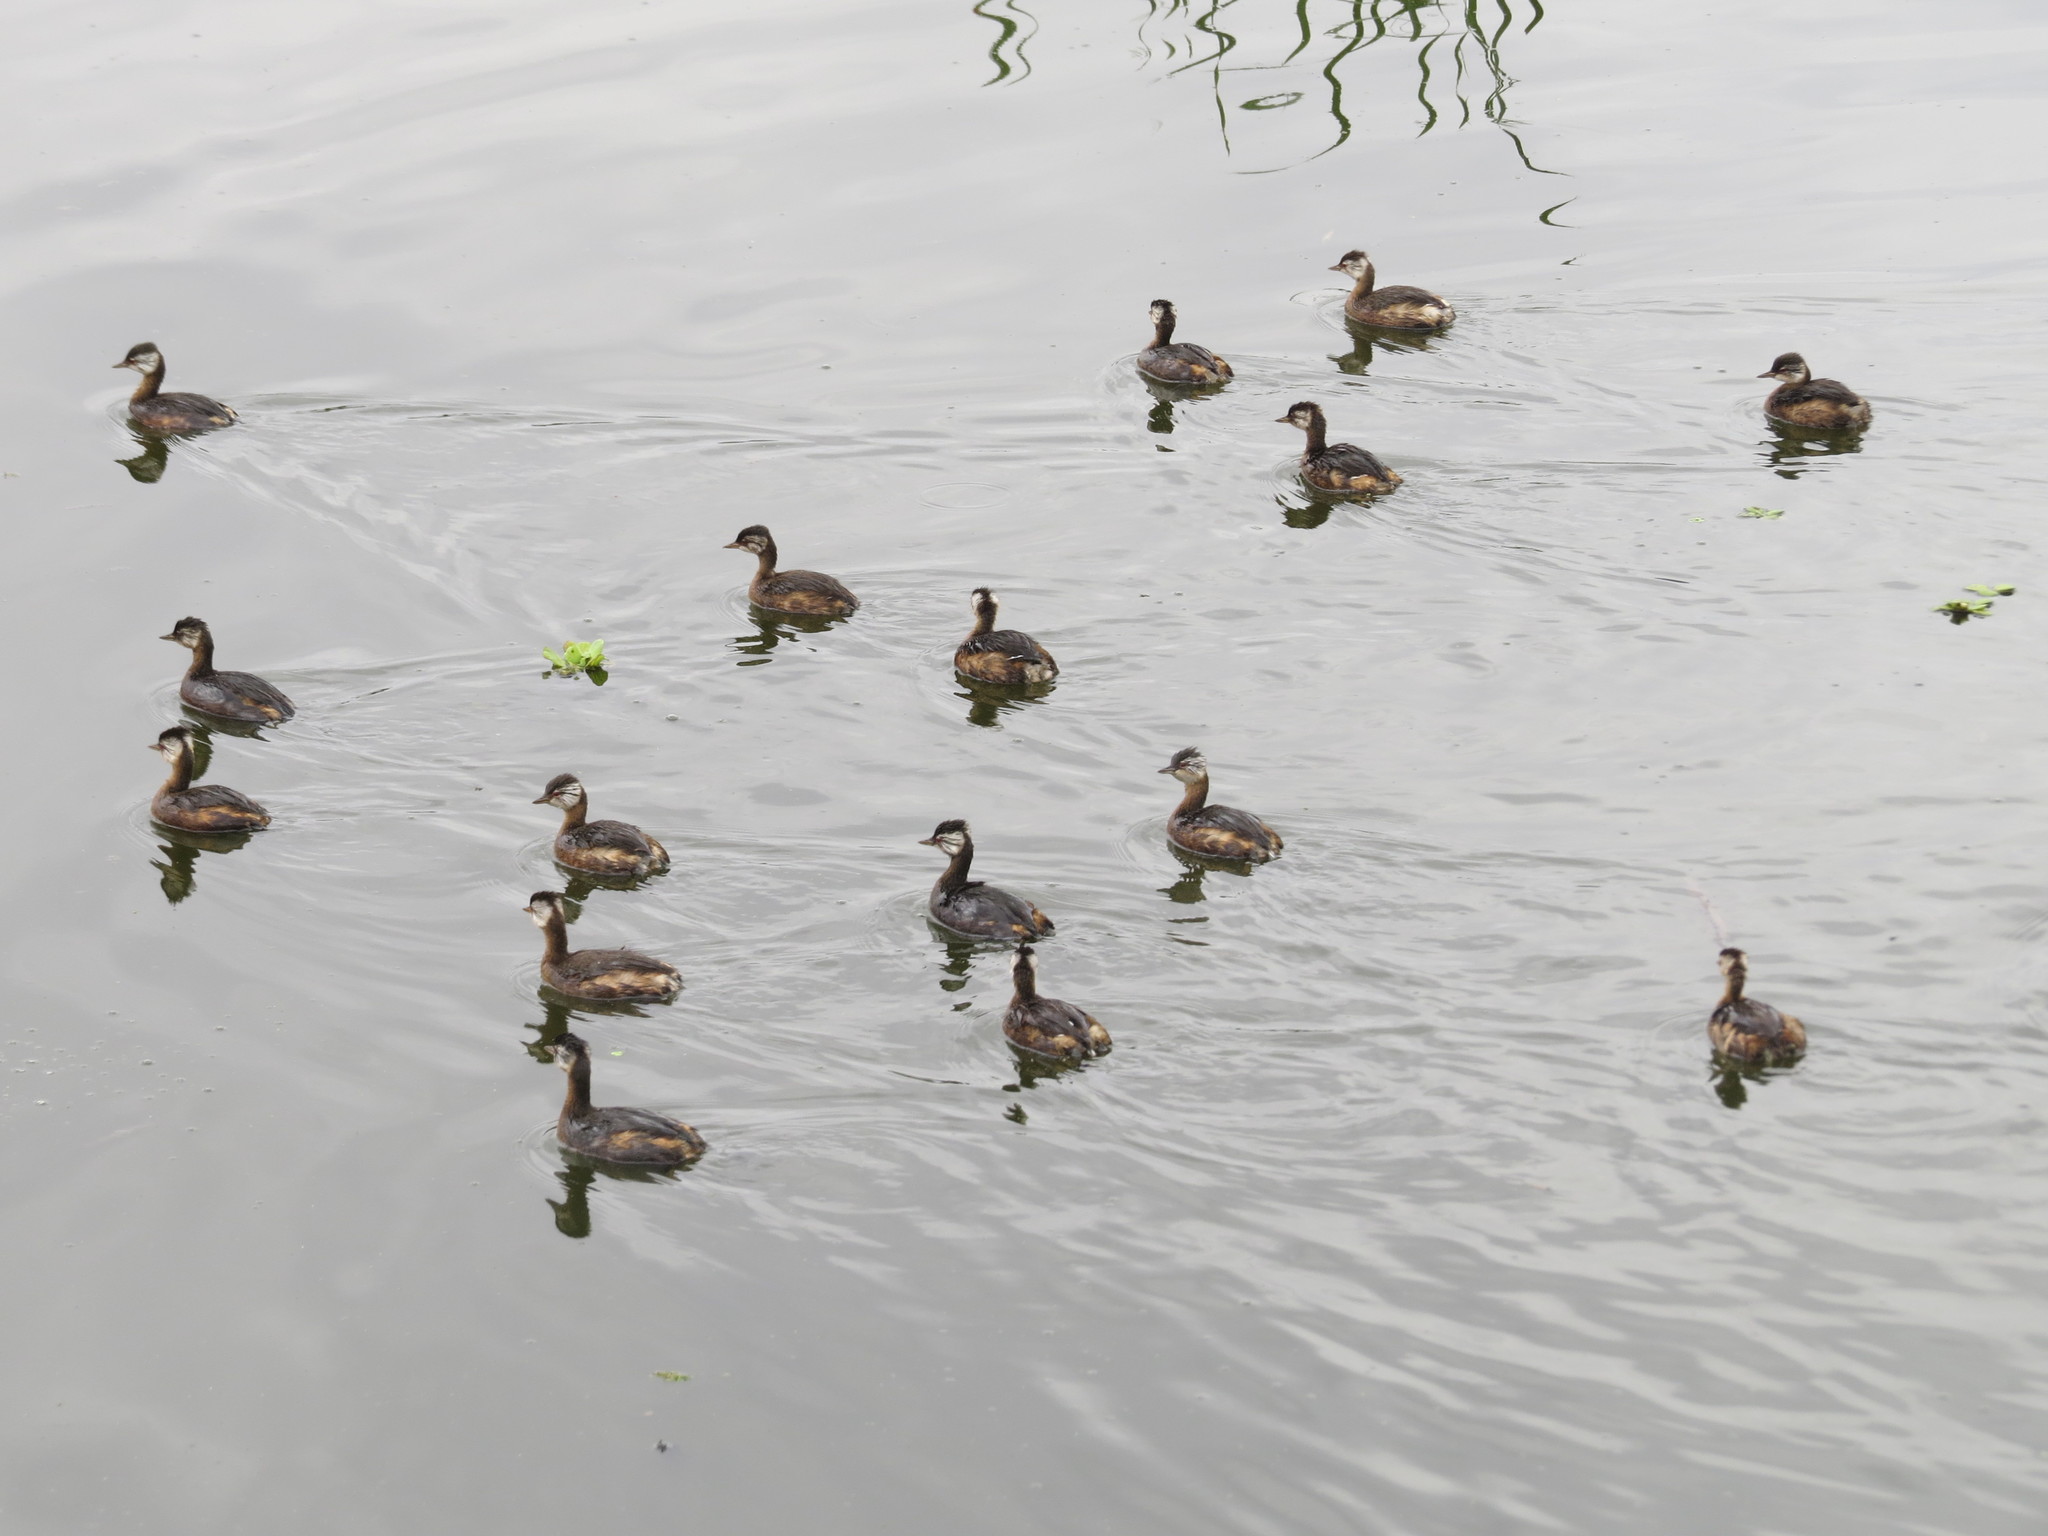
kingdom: Animalia
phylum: Chordata
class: Aves
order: Podicipediformes
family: Podicipedidae
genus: Rollandia
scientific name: Rollandia rolland
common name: White-tufted grebe
